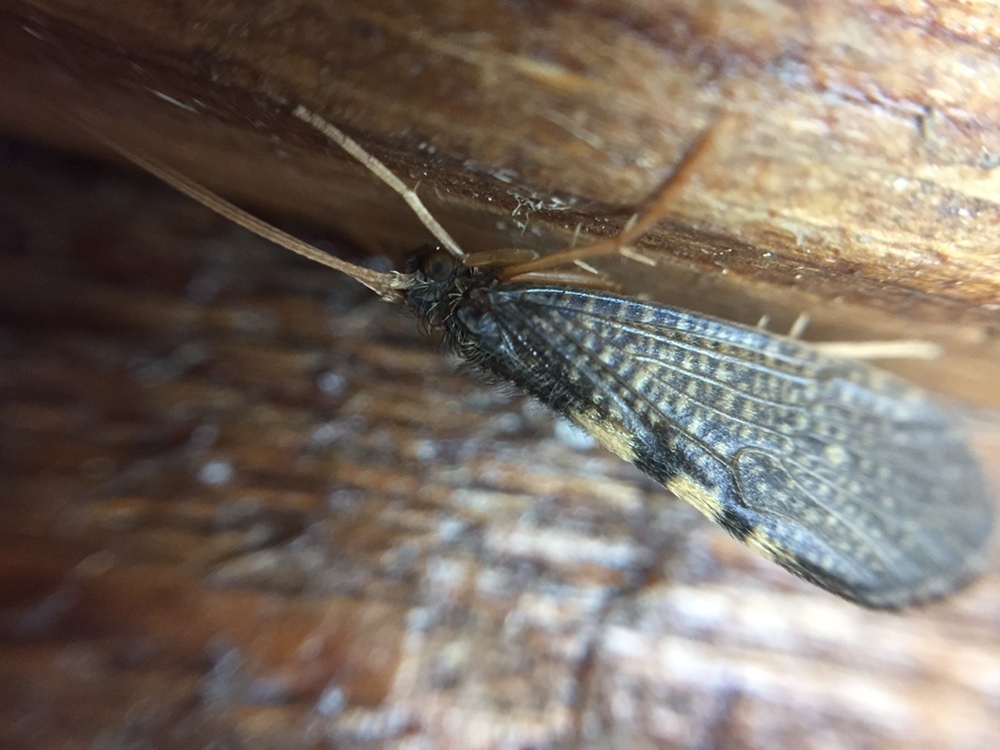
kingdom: Animalia
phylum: Arthropoda
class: Insecta
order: Trichoptera
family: Oeconesidae
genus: Pseudoeconesus
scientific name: Pseudoeconesus bistirpis
